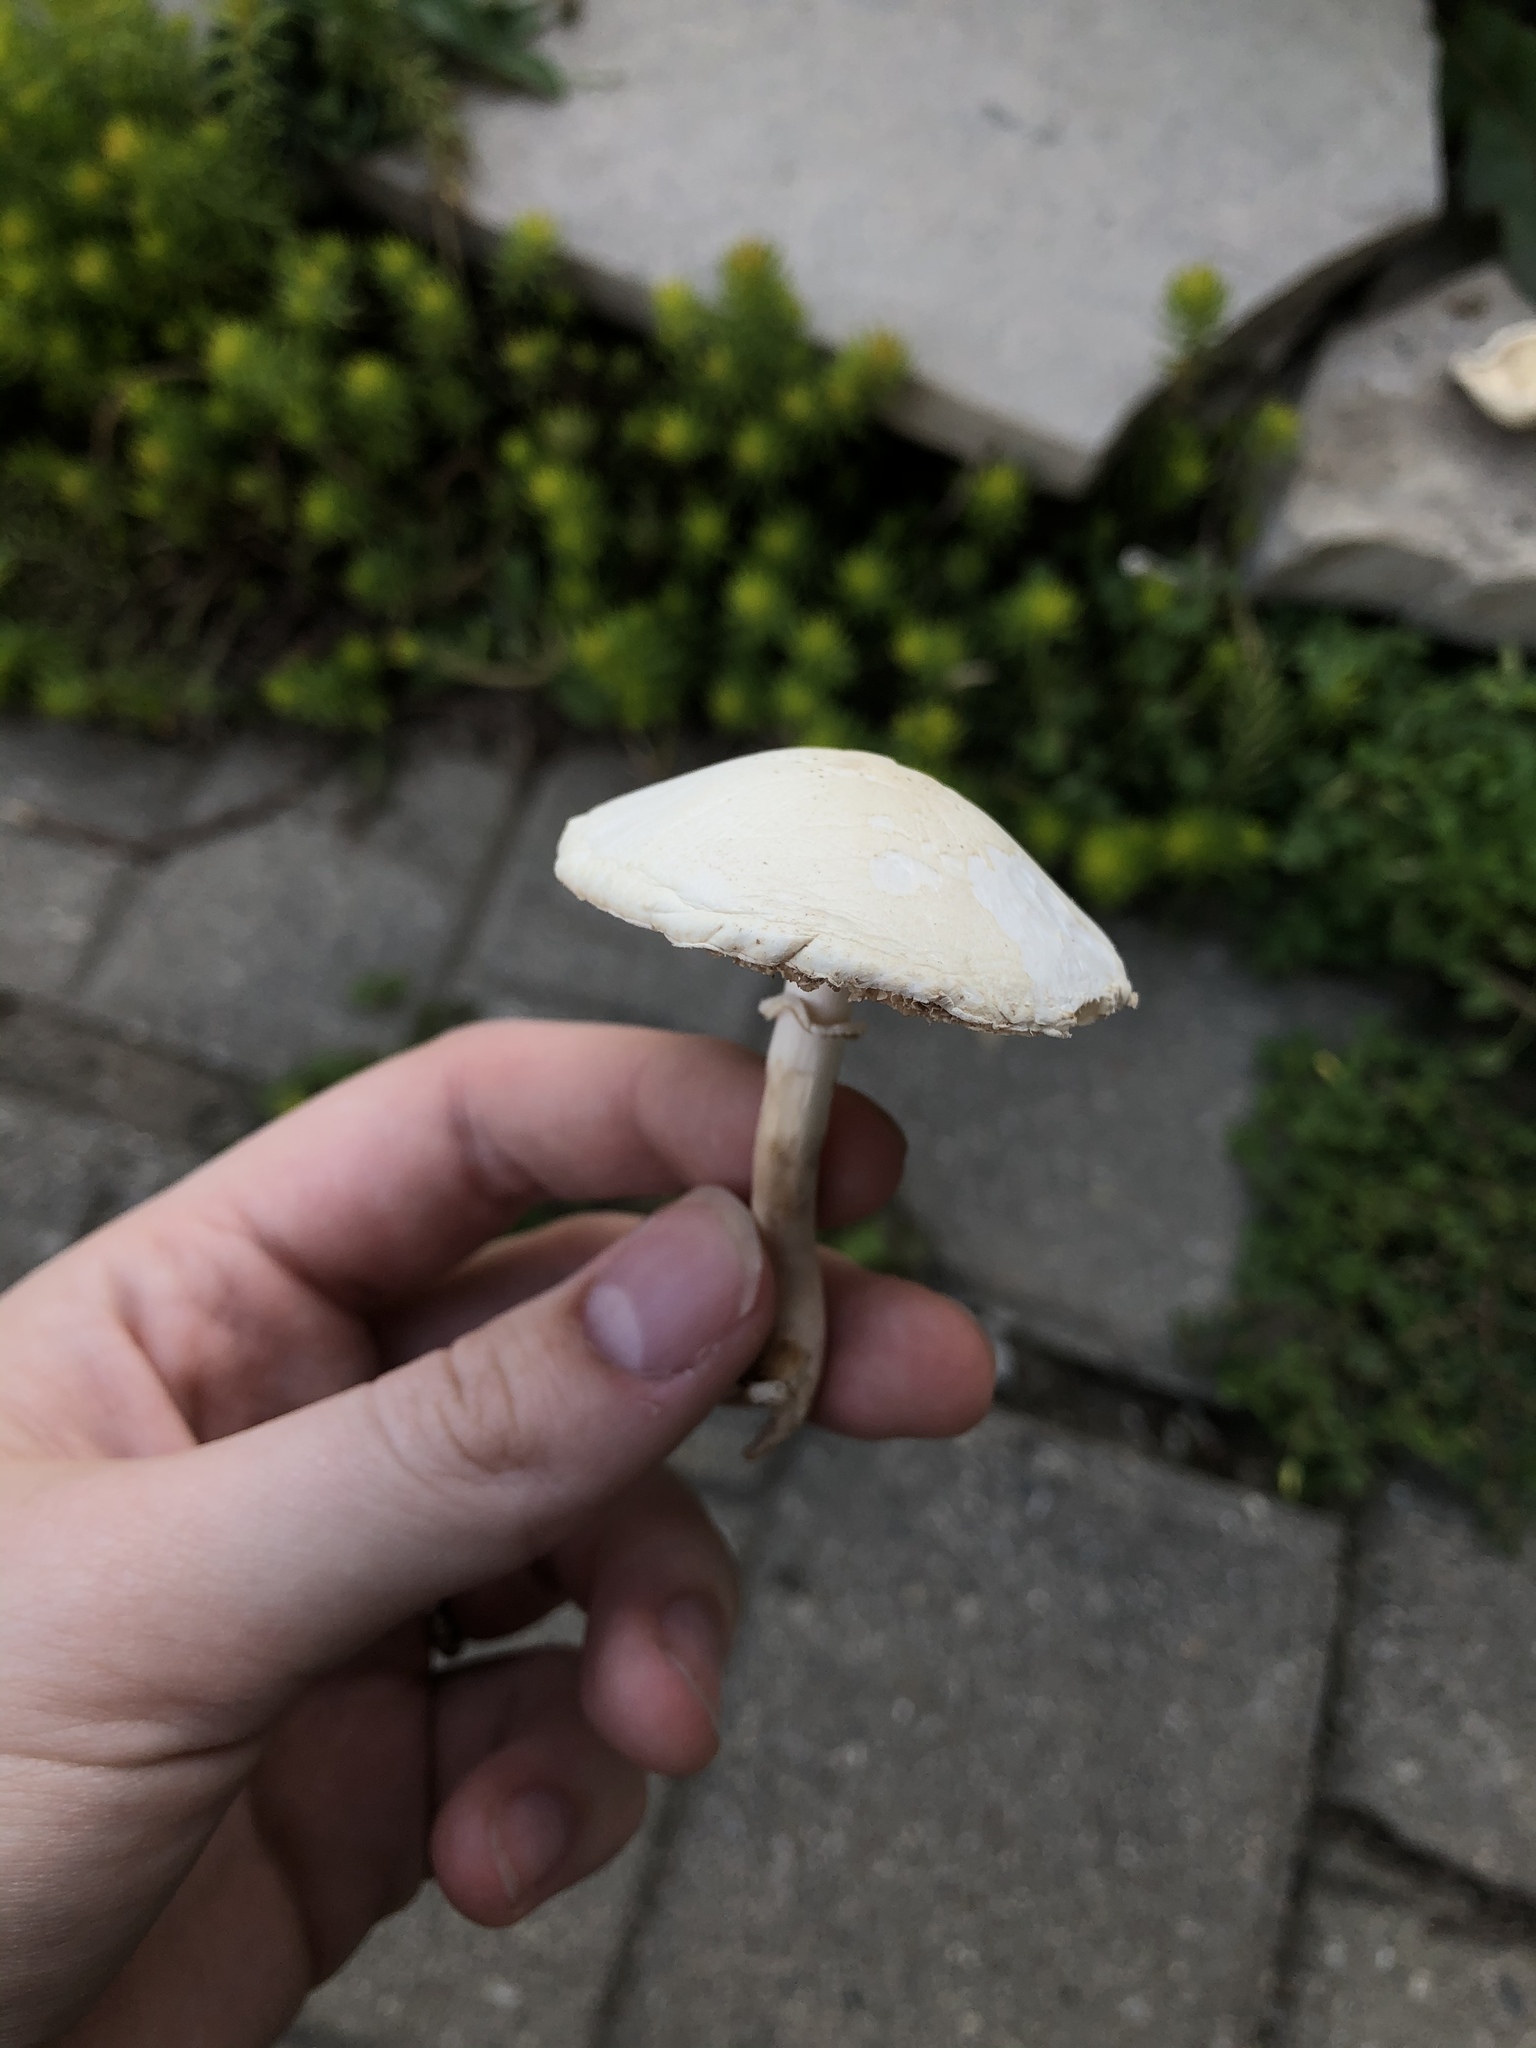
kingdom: Fungi
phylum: Basidiomycota
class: Agaricomycetes
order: Agaricales
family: Agaricaceae
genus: Leucoagaricus
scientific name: Leucoagaricus leucothites
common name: White dapperling
